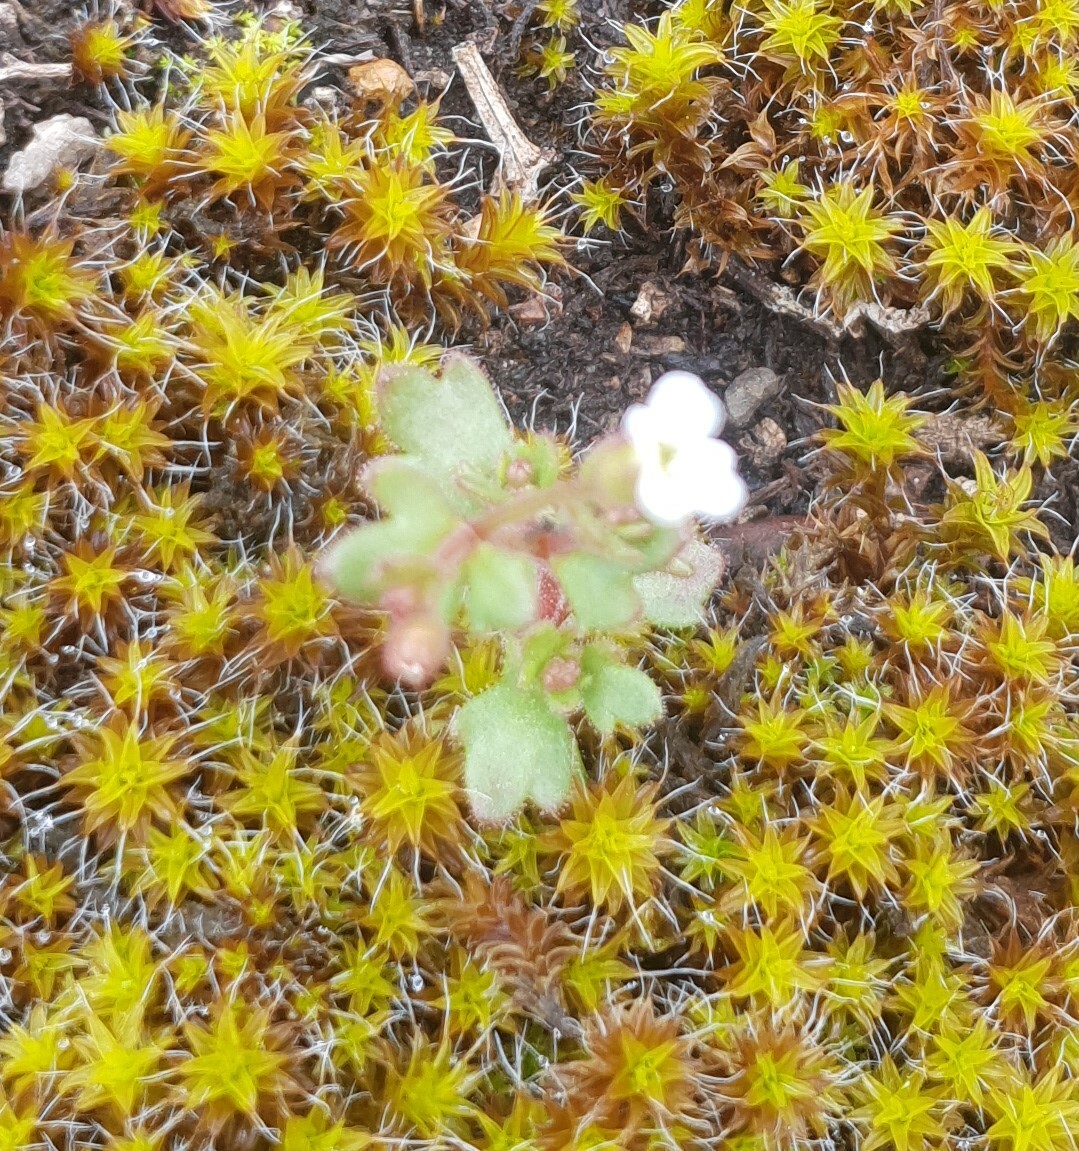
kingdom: Plantae
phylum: Tracheophyta
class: Magnoliopsida
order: Saxifragales
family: Saxifragaceae
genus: Saxifraga
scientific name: Saxifraga tridactylites
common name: Rue-leaved saxifrage
